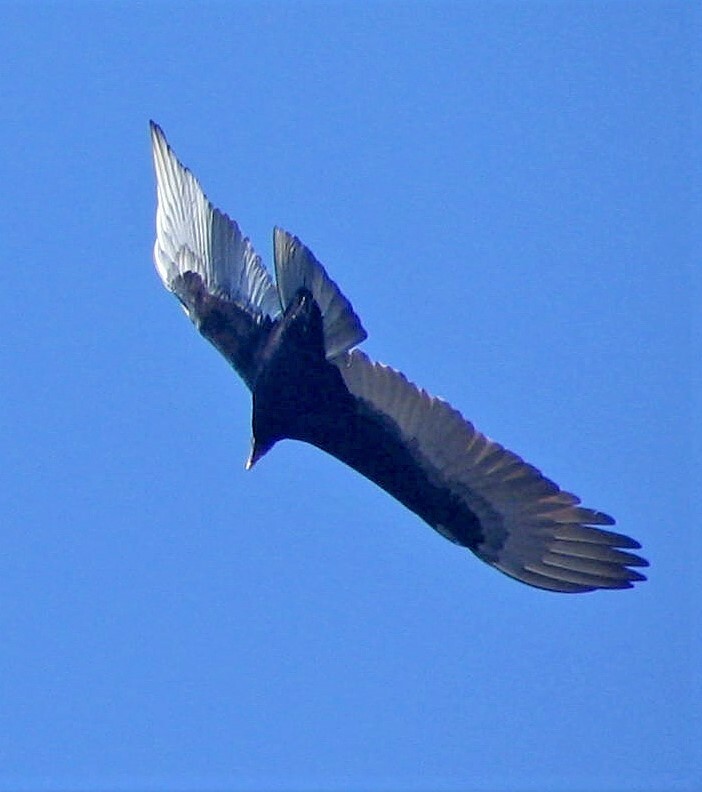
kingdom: Animalia
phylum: Chordata
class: Aves
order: Accipitriformes
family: Cathartidae
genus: Cathartes
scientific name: Cathartes aura
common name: Turkey vulture
